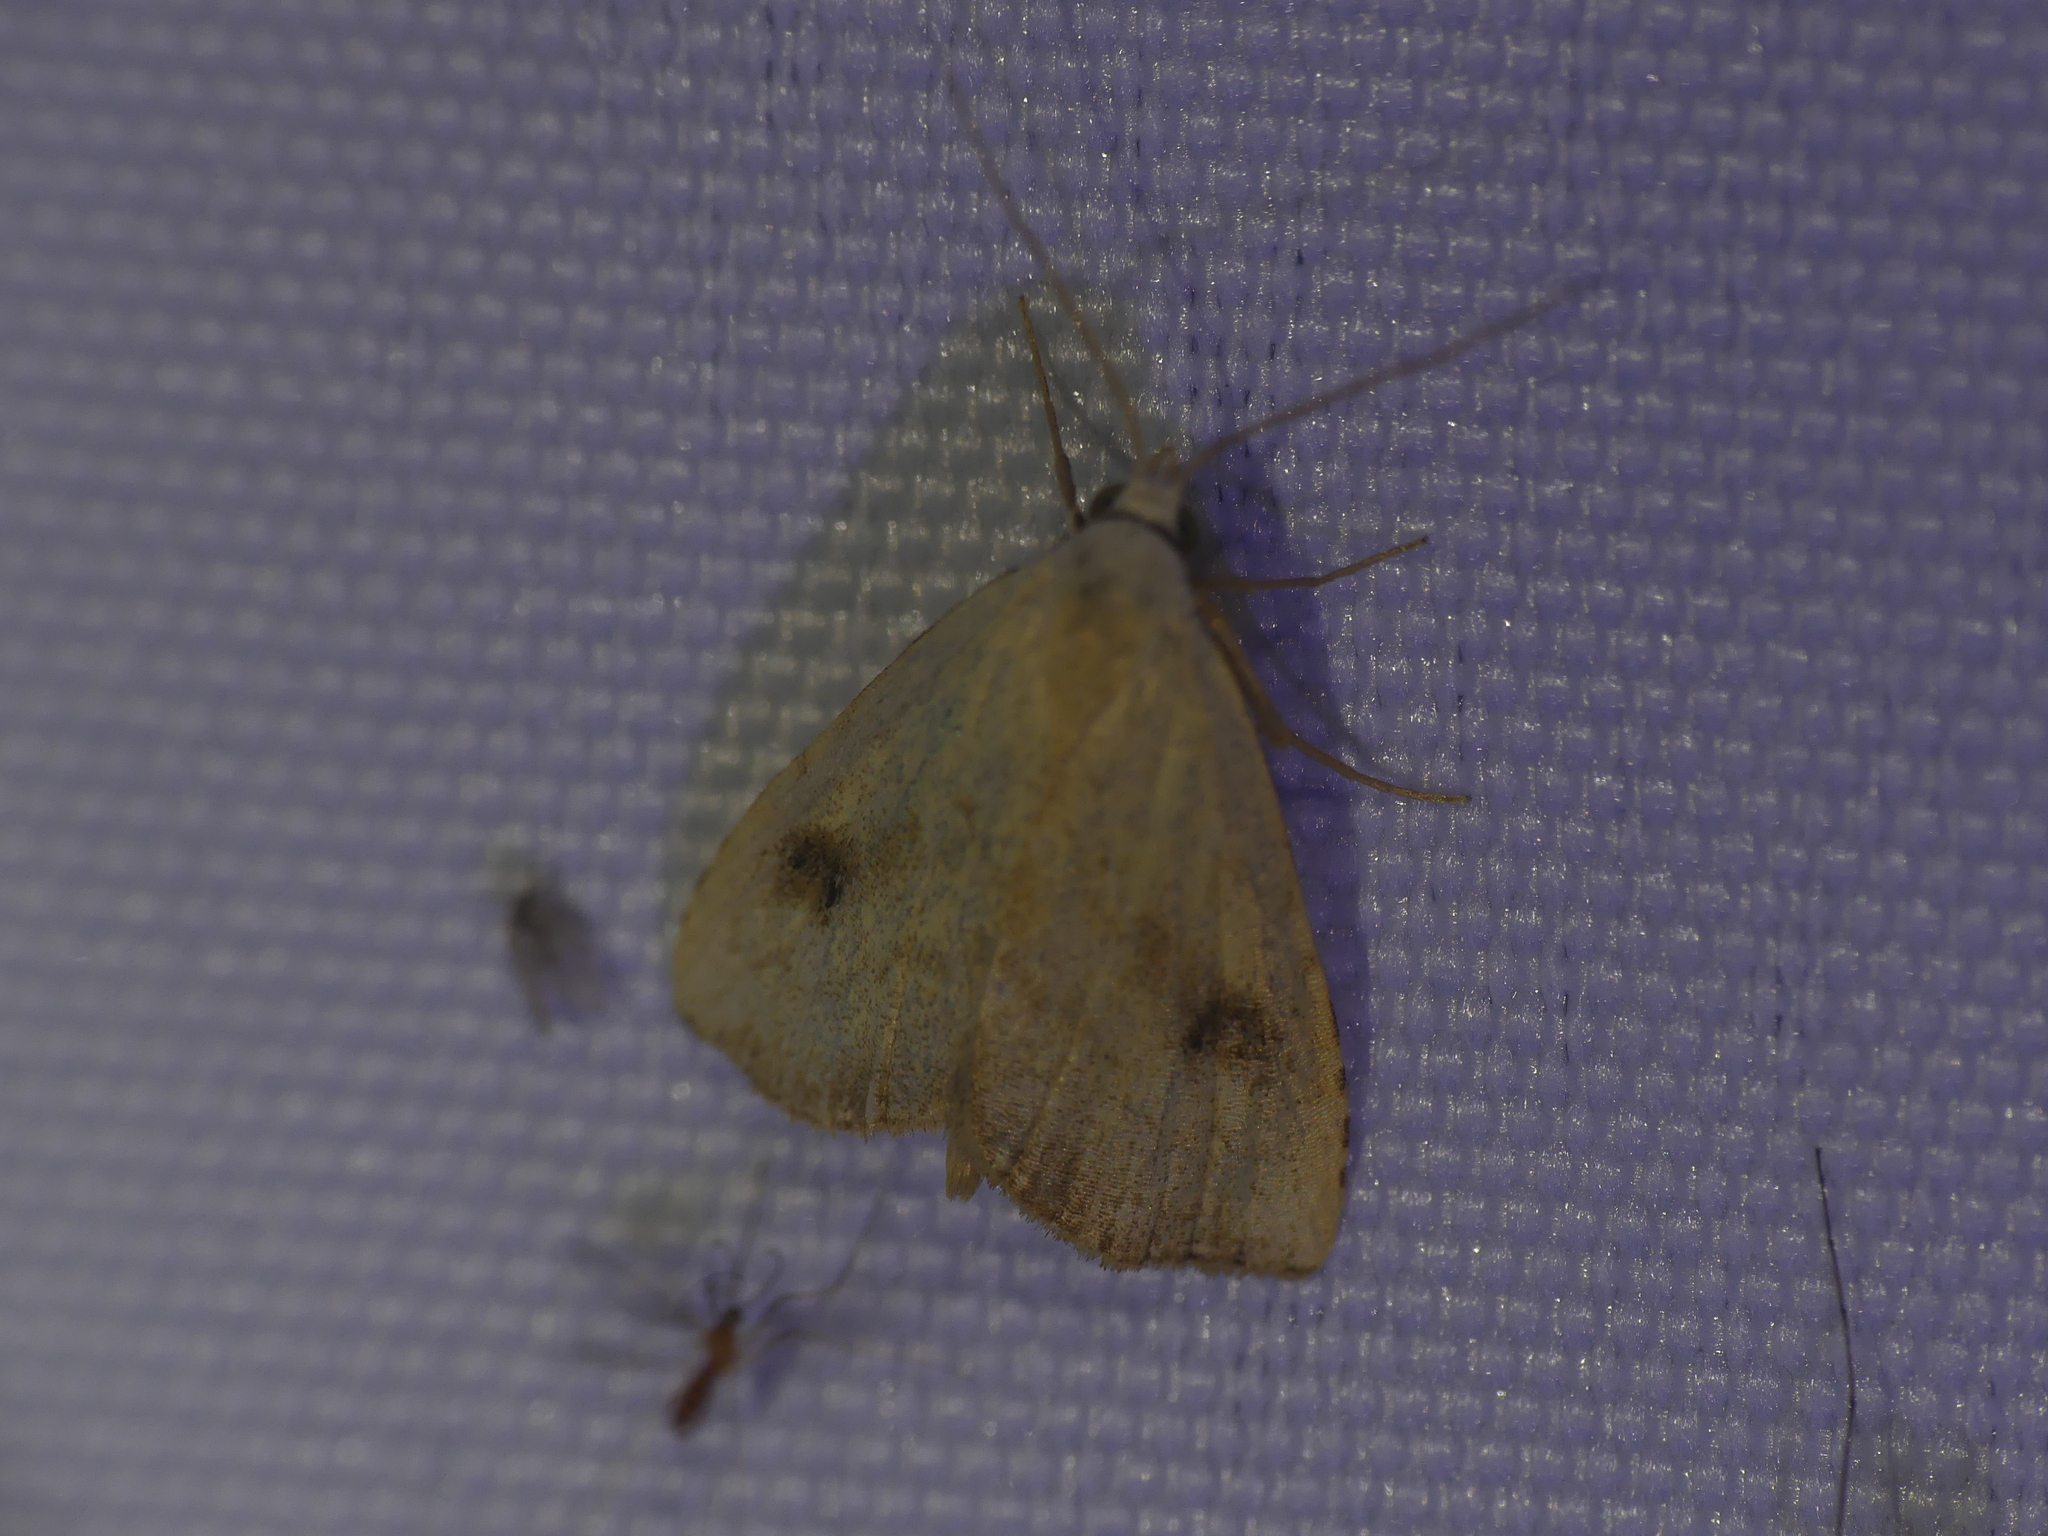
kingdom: Animalia
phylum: Arthropoda
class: Insecta
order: Lepidoptera
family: Erebidae
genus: Rivula
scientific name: Rivula sericealis
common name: Straw dot
